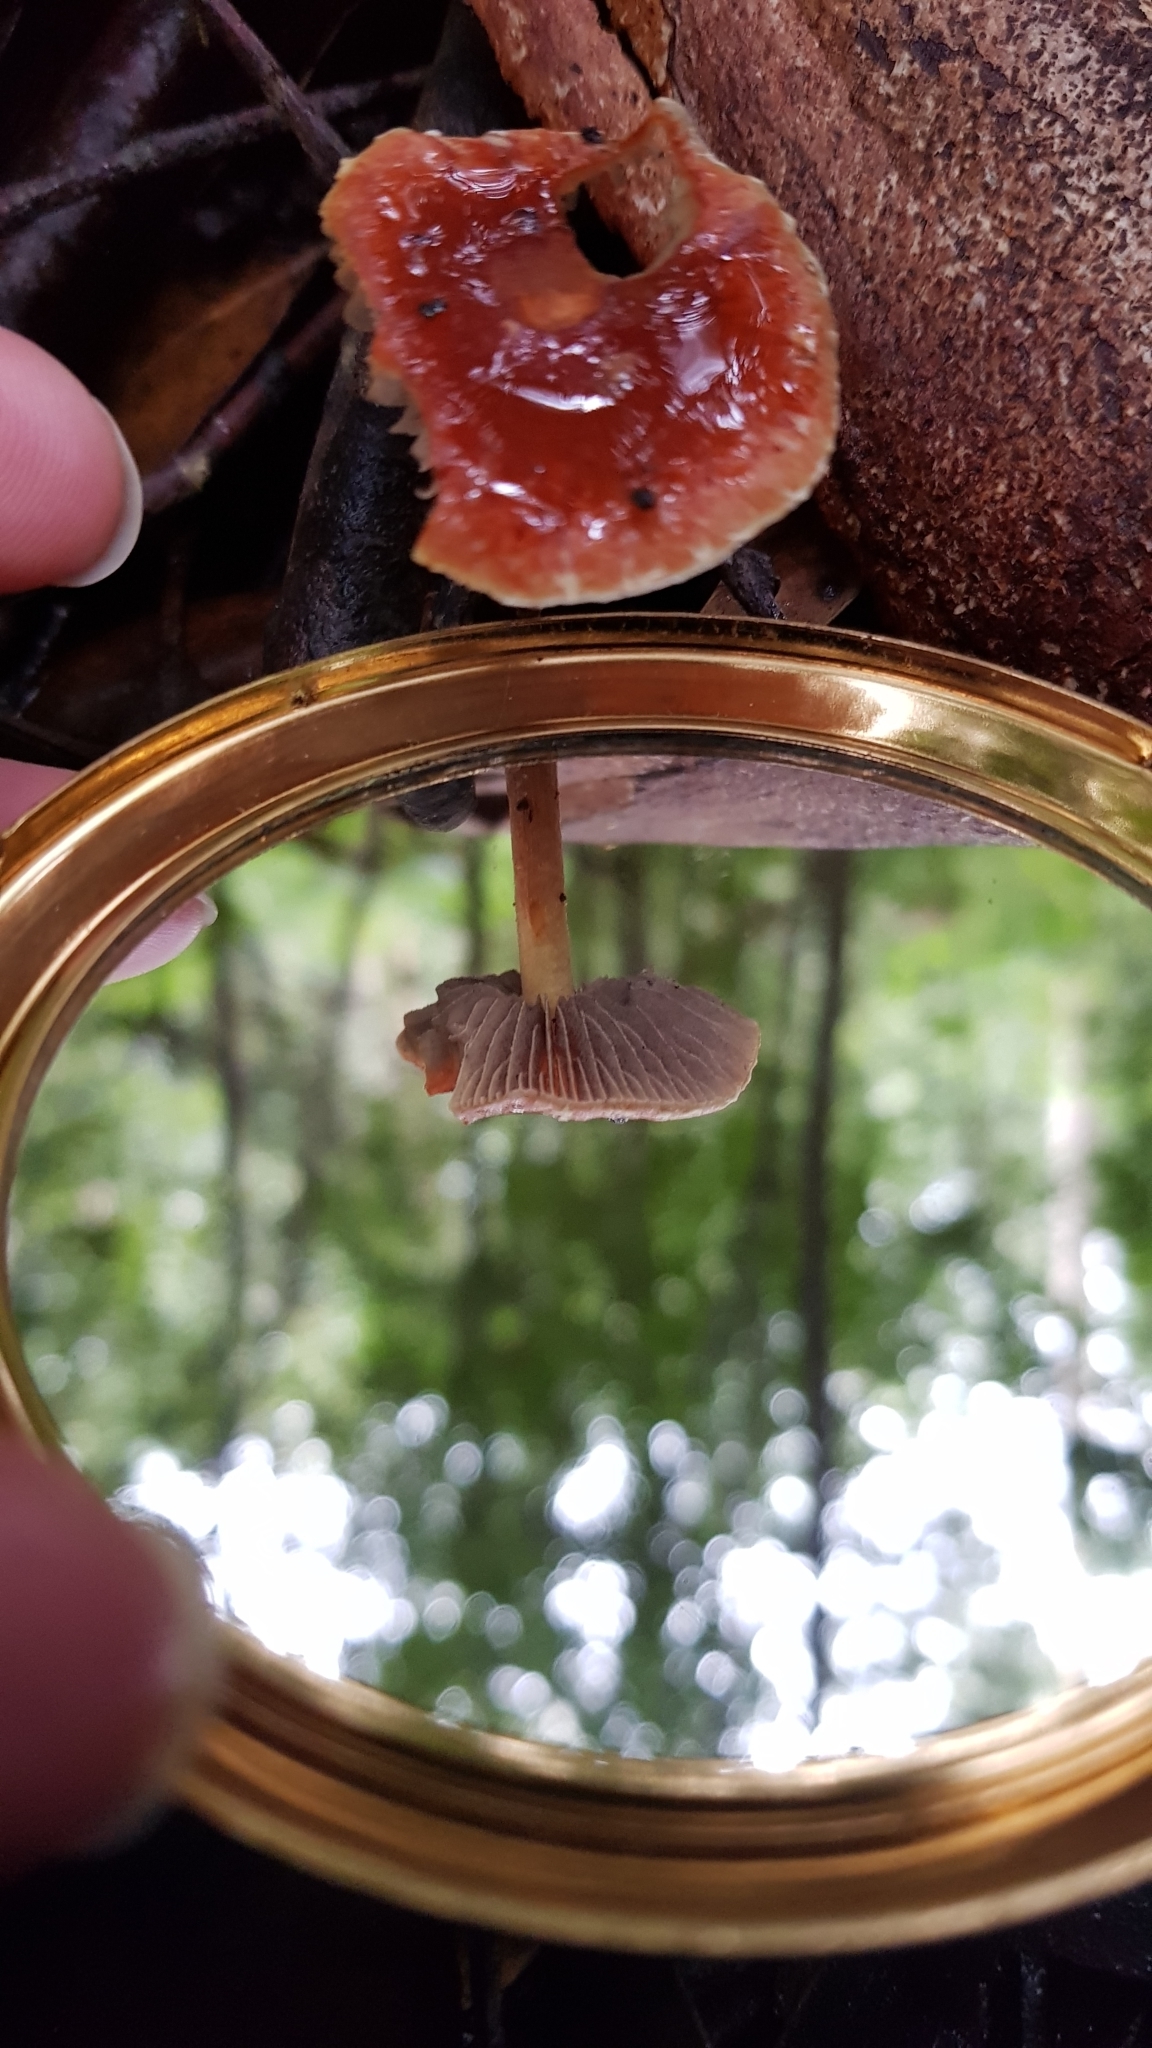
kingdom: Fungi
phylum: Basidiomycota
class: Agaricomycetes
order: Agaricales
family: Strophariaceae
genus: Leratiomyces
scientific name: Leratiomyces ceres
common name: Redlead roundhead
